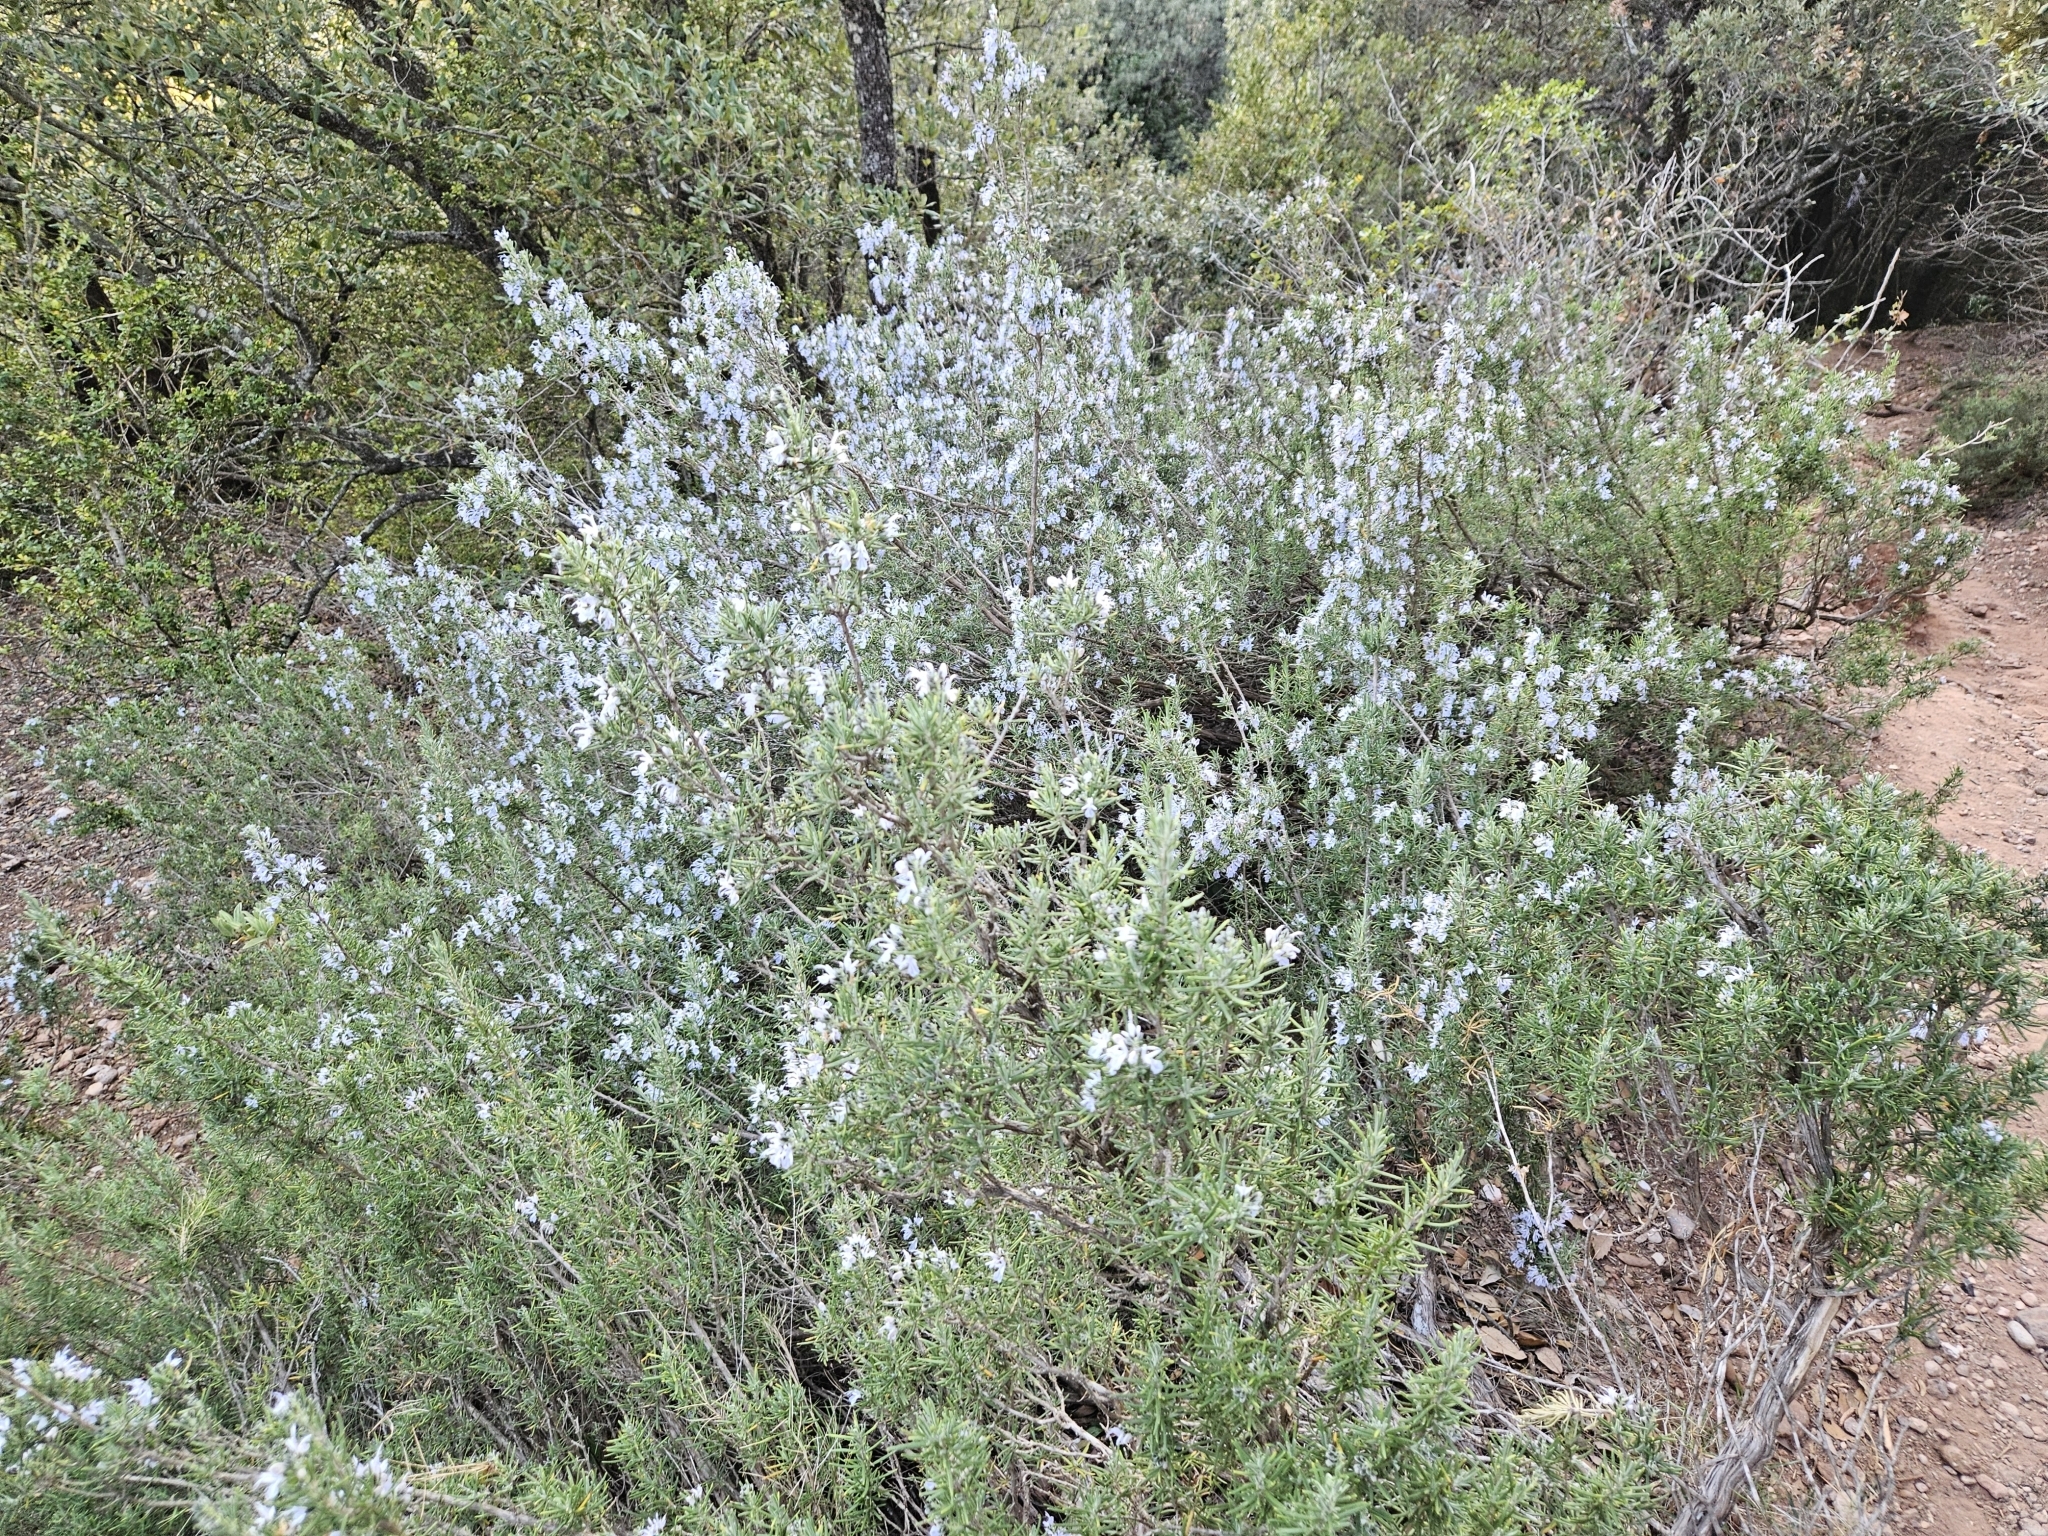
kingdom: Plantae
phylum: Tracheophyta
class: Magnoliopsida
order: Lamiales
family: Lamiaceae
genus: Salvia
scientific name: Salvia rosmarinus
